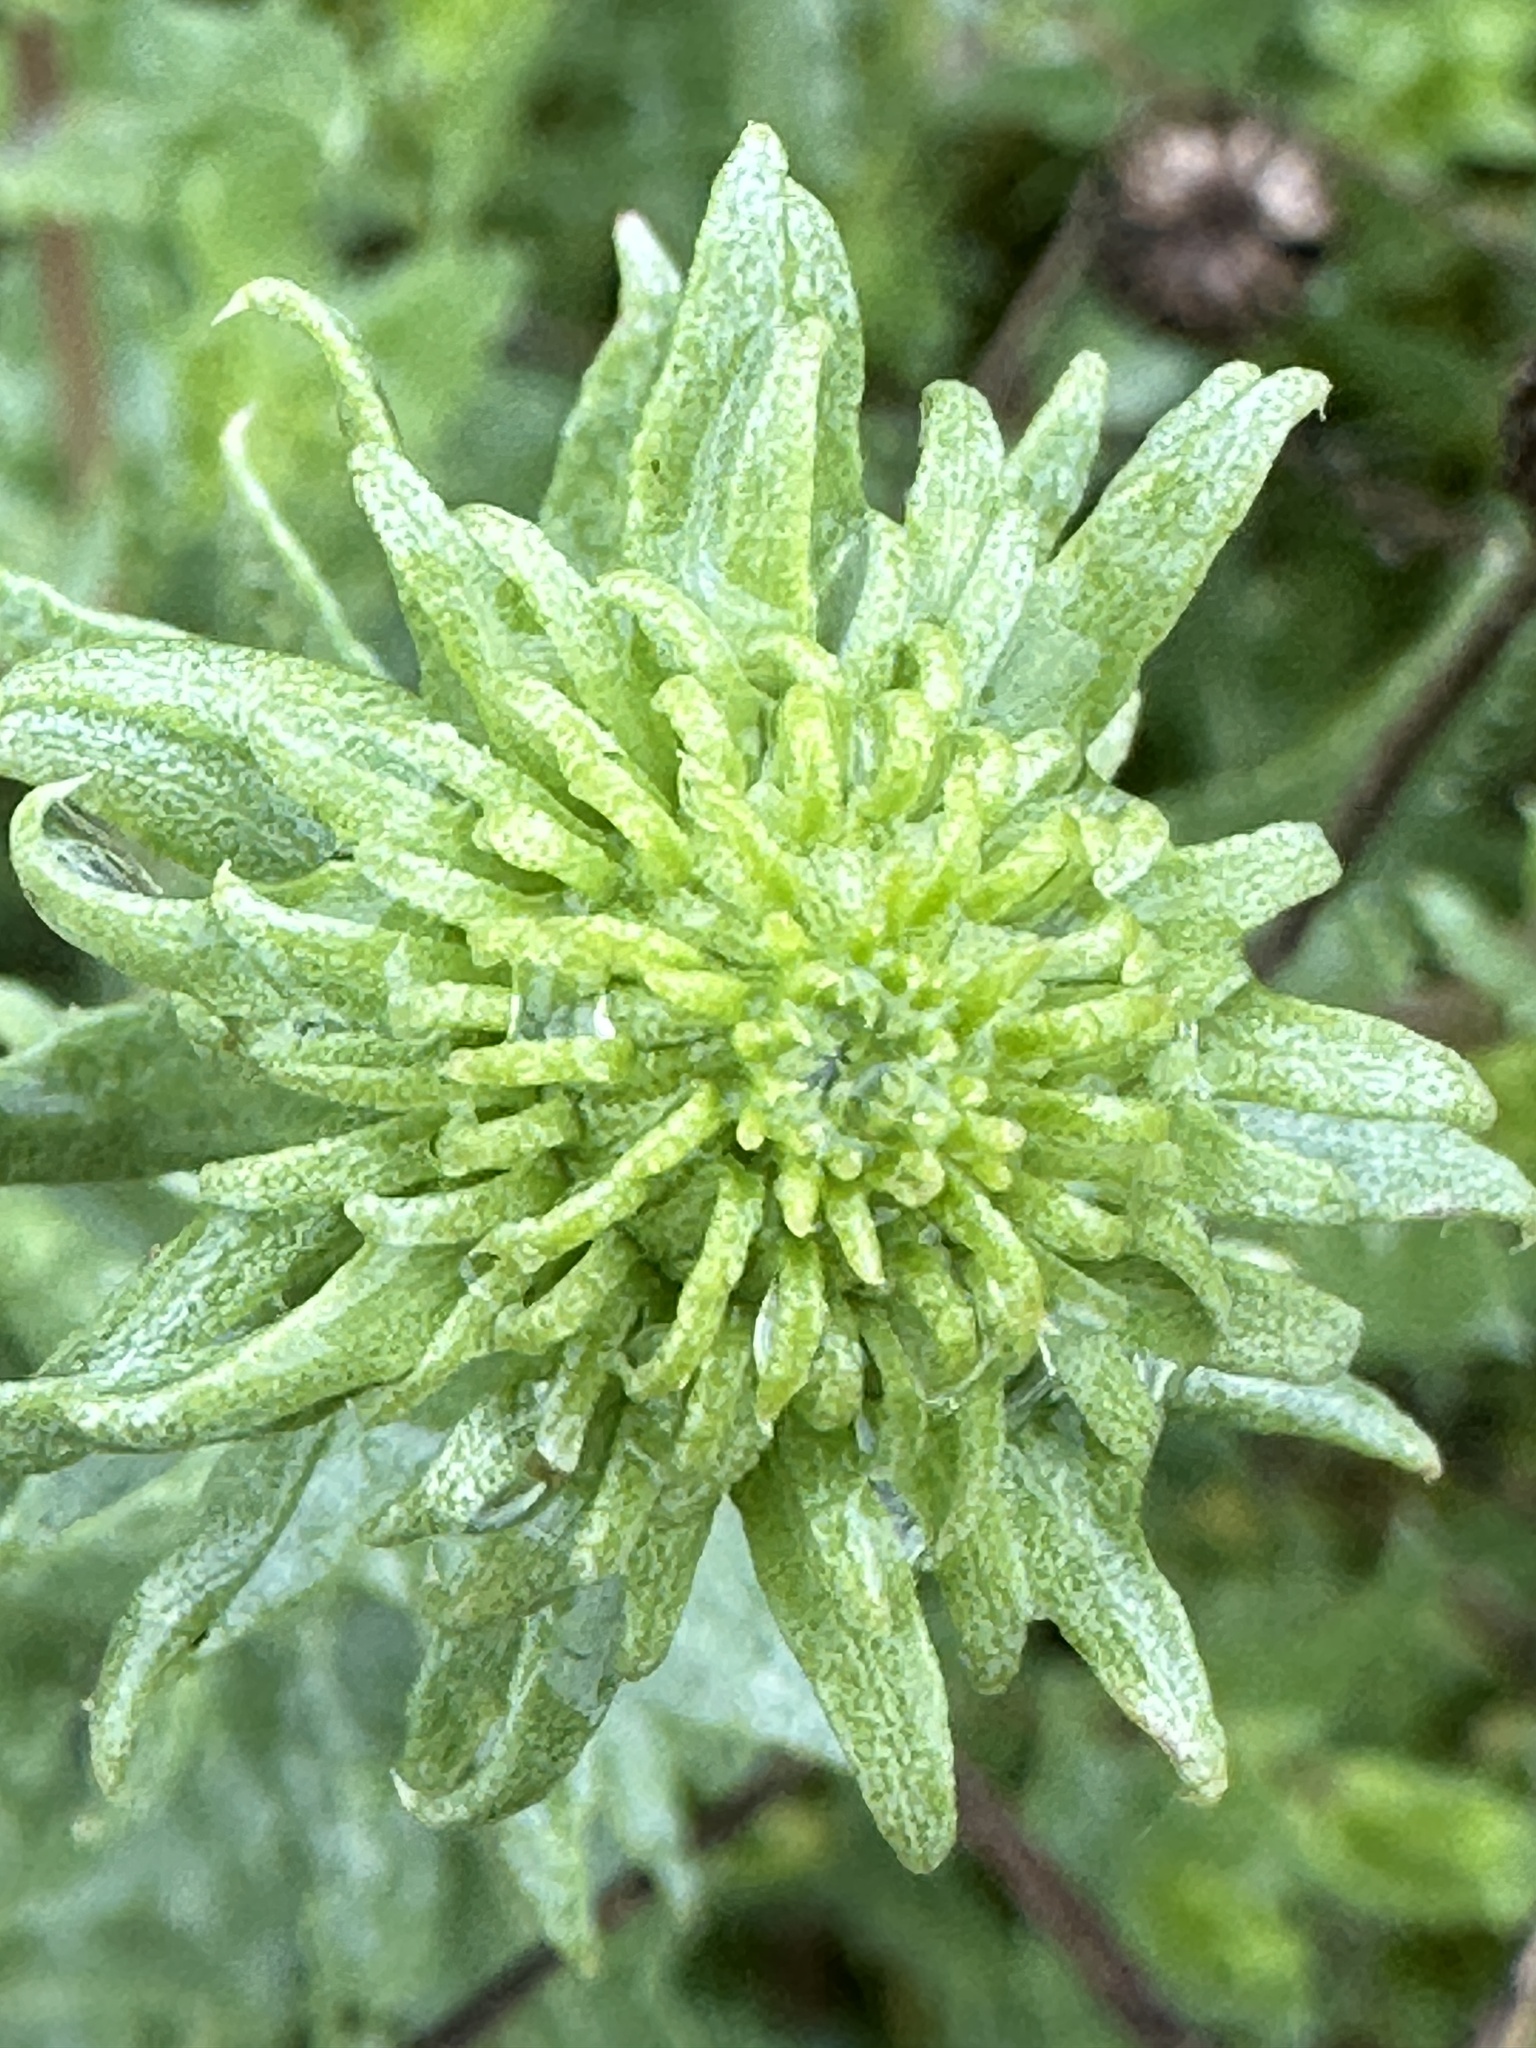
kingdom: Plantae
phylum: Tracheophyta
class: Magnoliopsida
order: Asterales
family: Asteraceae
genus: Grindelia
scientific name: Grindelia hirsutula
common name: Hairy gumweed
